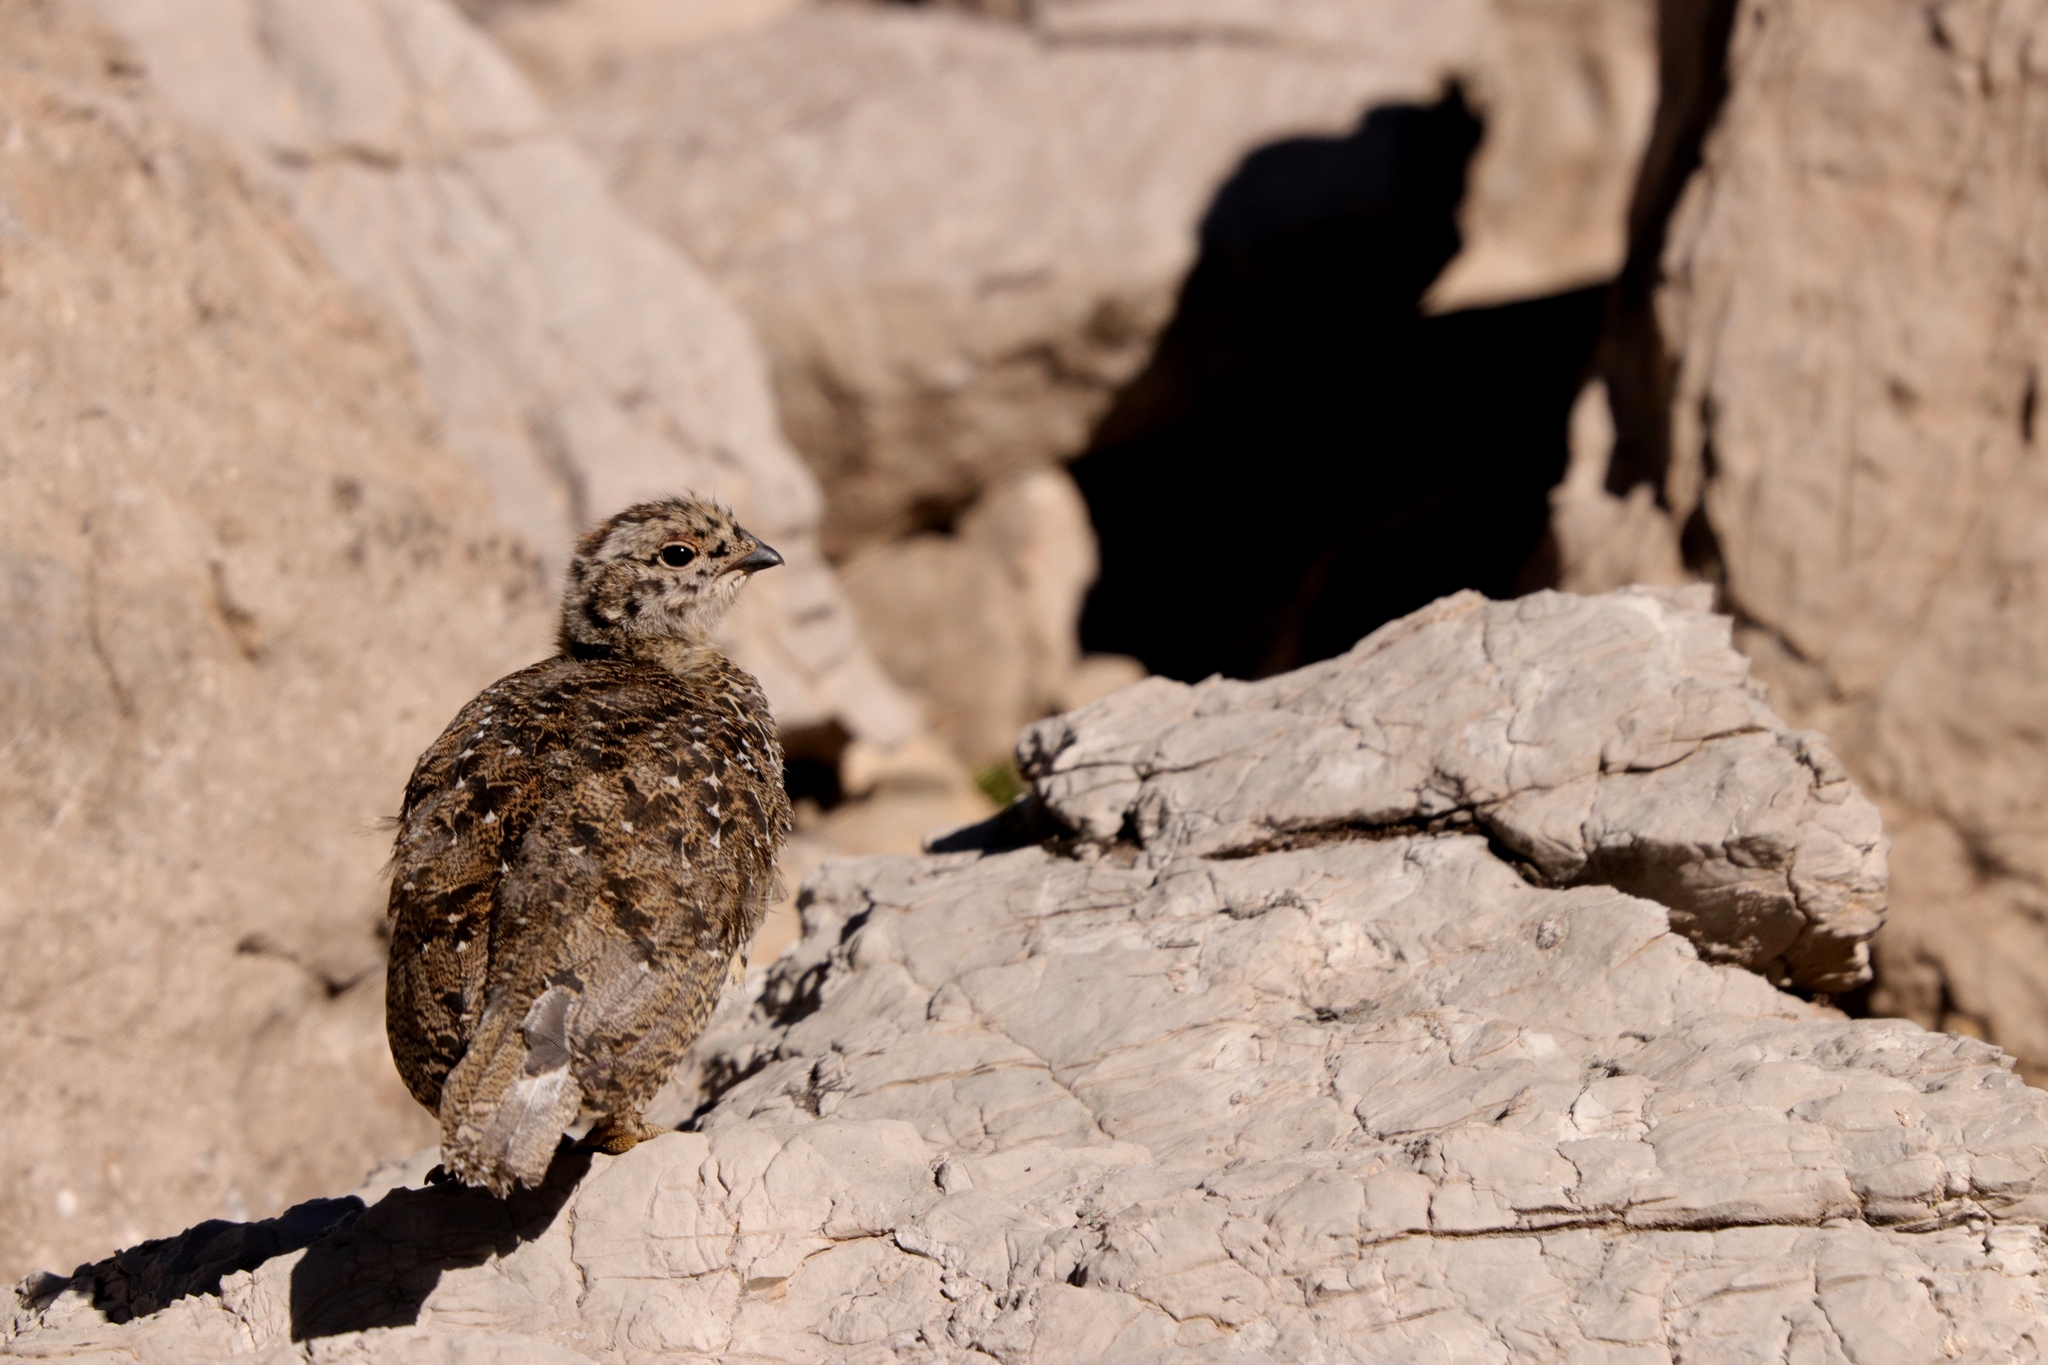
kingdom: Animalia
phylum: Chordata
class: Aves
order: Galliformes
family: Phasianidae
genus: Lagopus
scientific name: Lagopus leucura
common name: White-tailed ptarmigan
